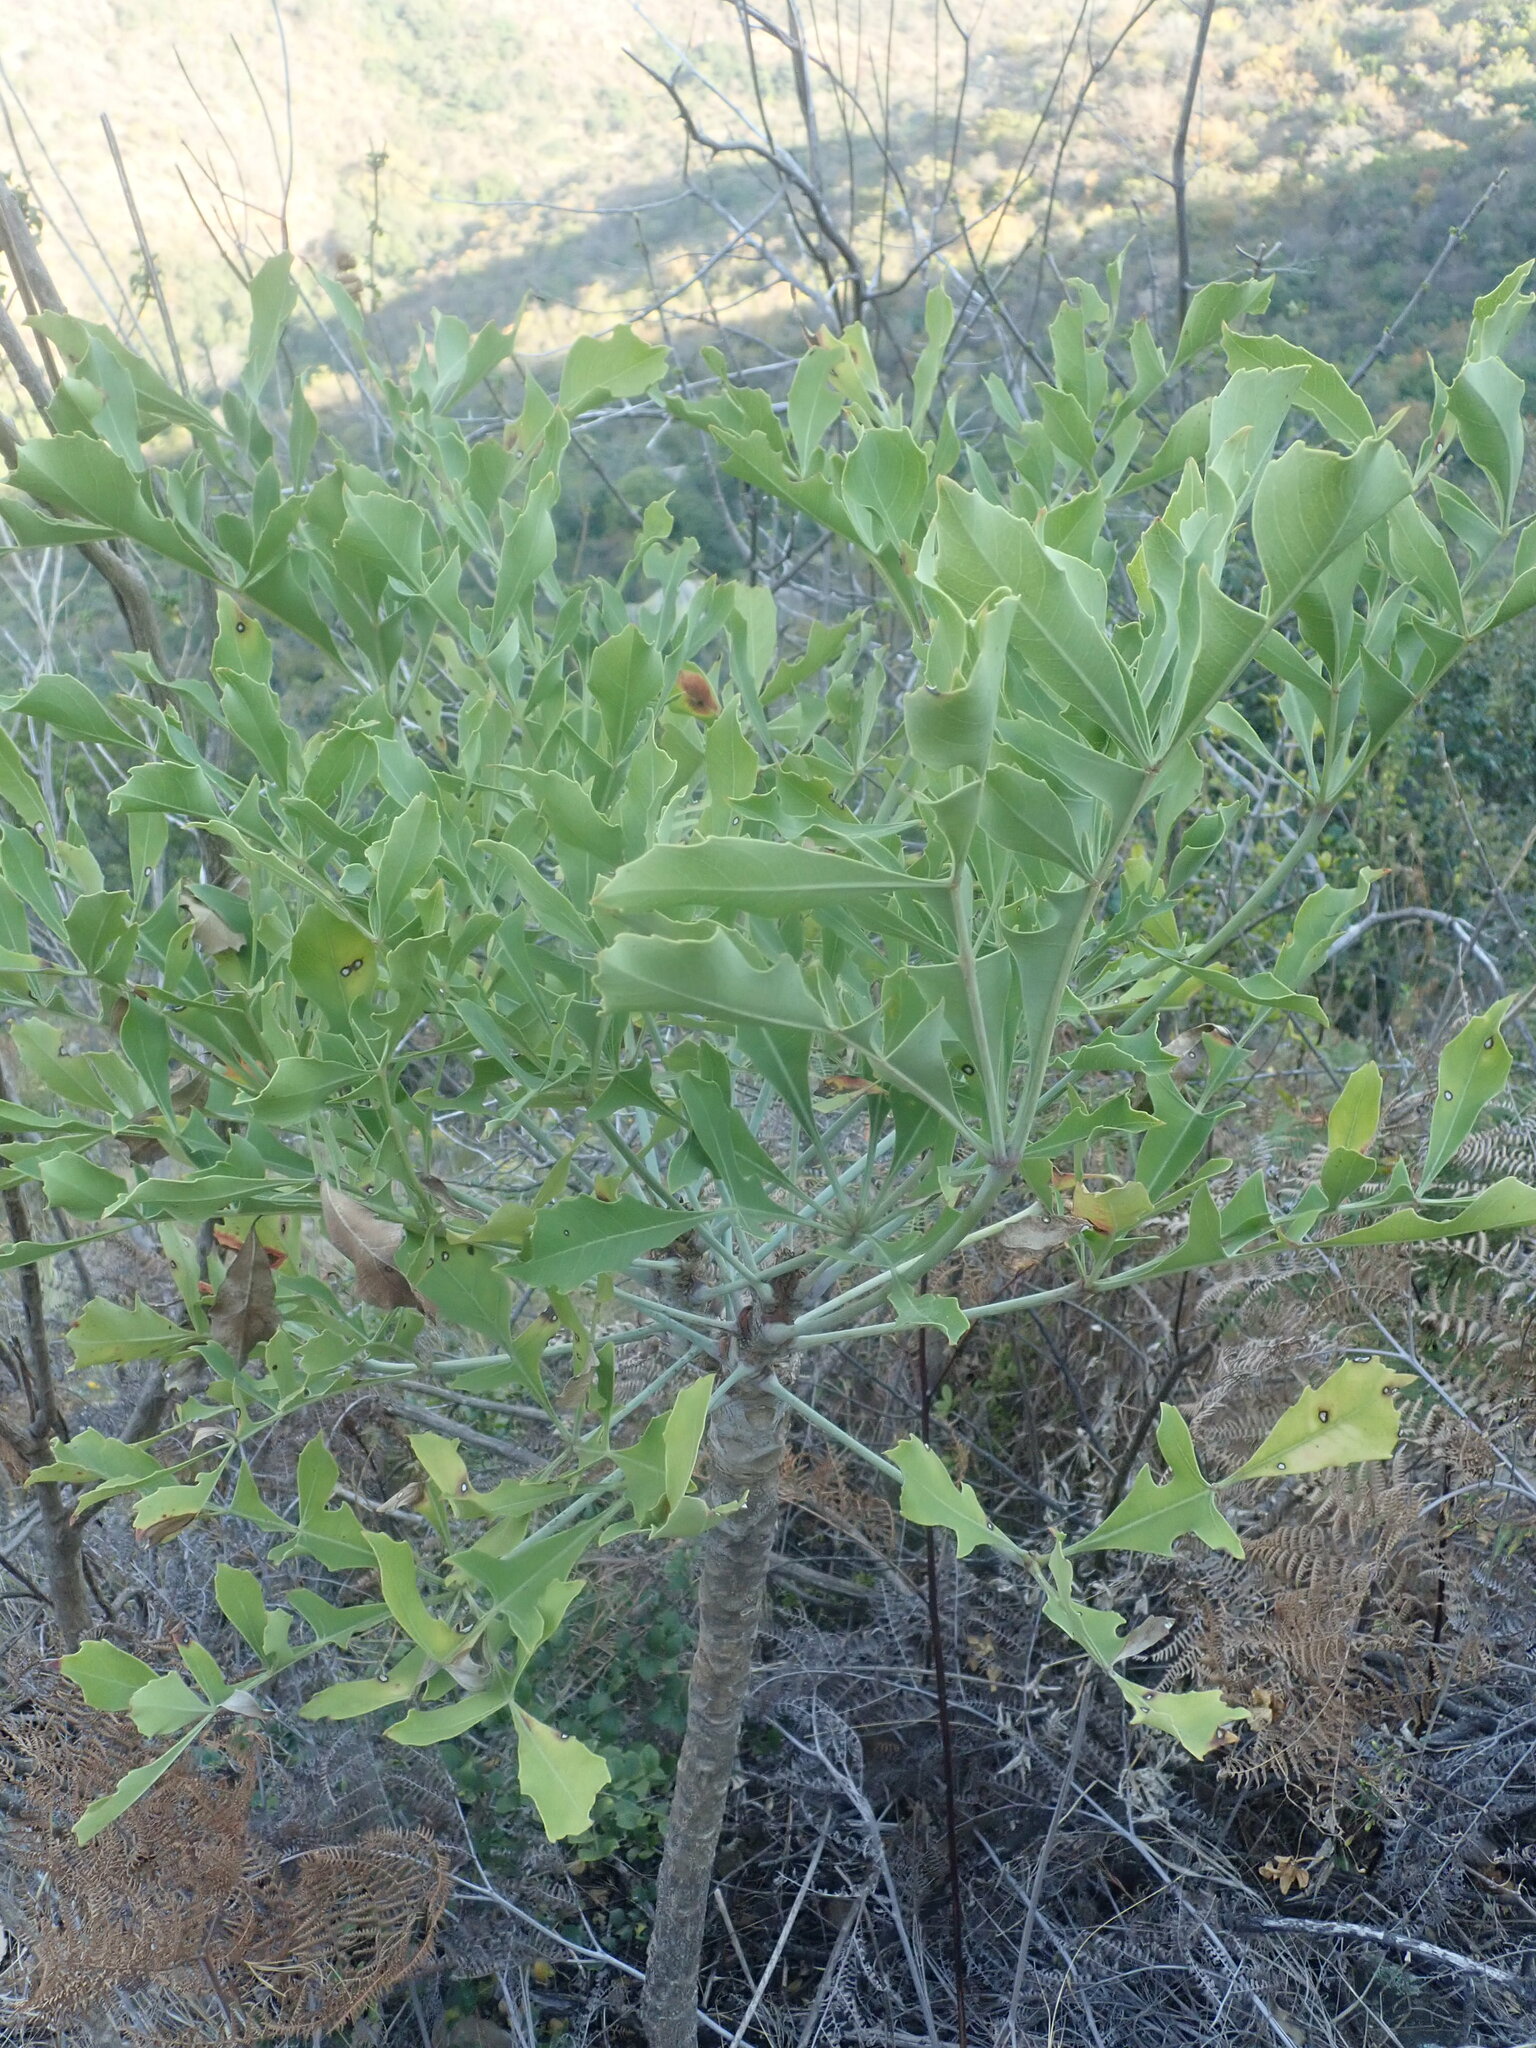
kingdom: Plantae
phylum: Tracheophyta
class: Magnoliopsida
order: Apiales
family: Araliaceae
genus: Cussonia
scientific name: Cussonia spicata
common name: Common cabbagetree
